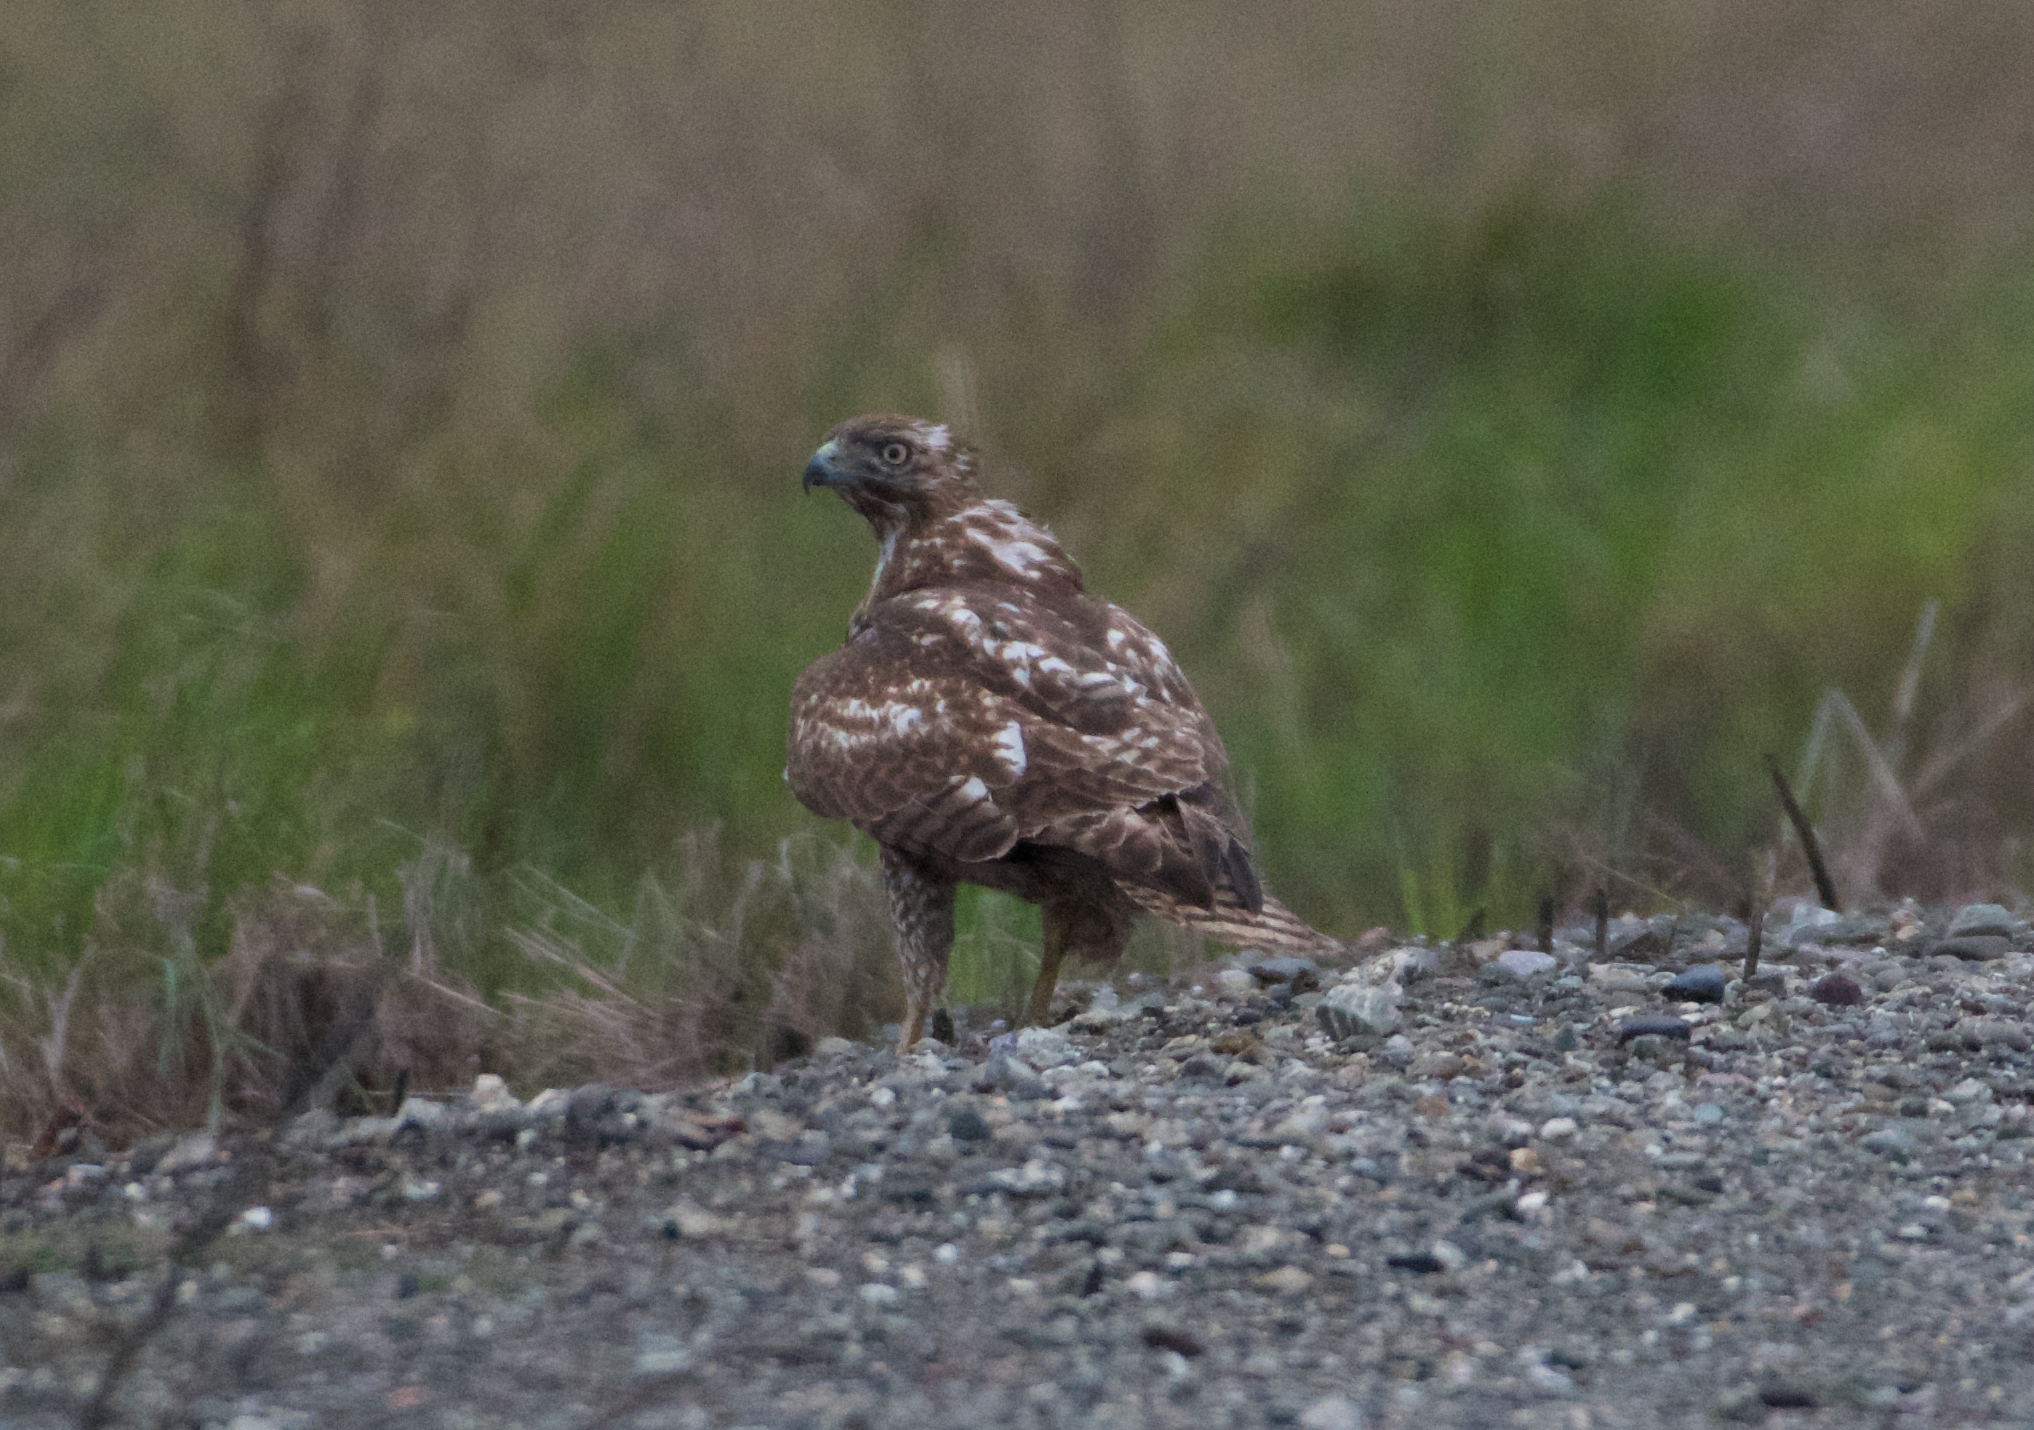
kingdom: Animalia
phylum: Chordata
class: Aves
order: Accipitriformes
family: Accipitridae
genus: Buteo
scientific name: Buteo jamaicensis
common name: Red-tailed hawk
